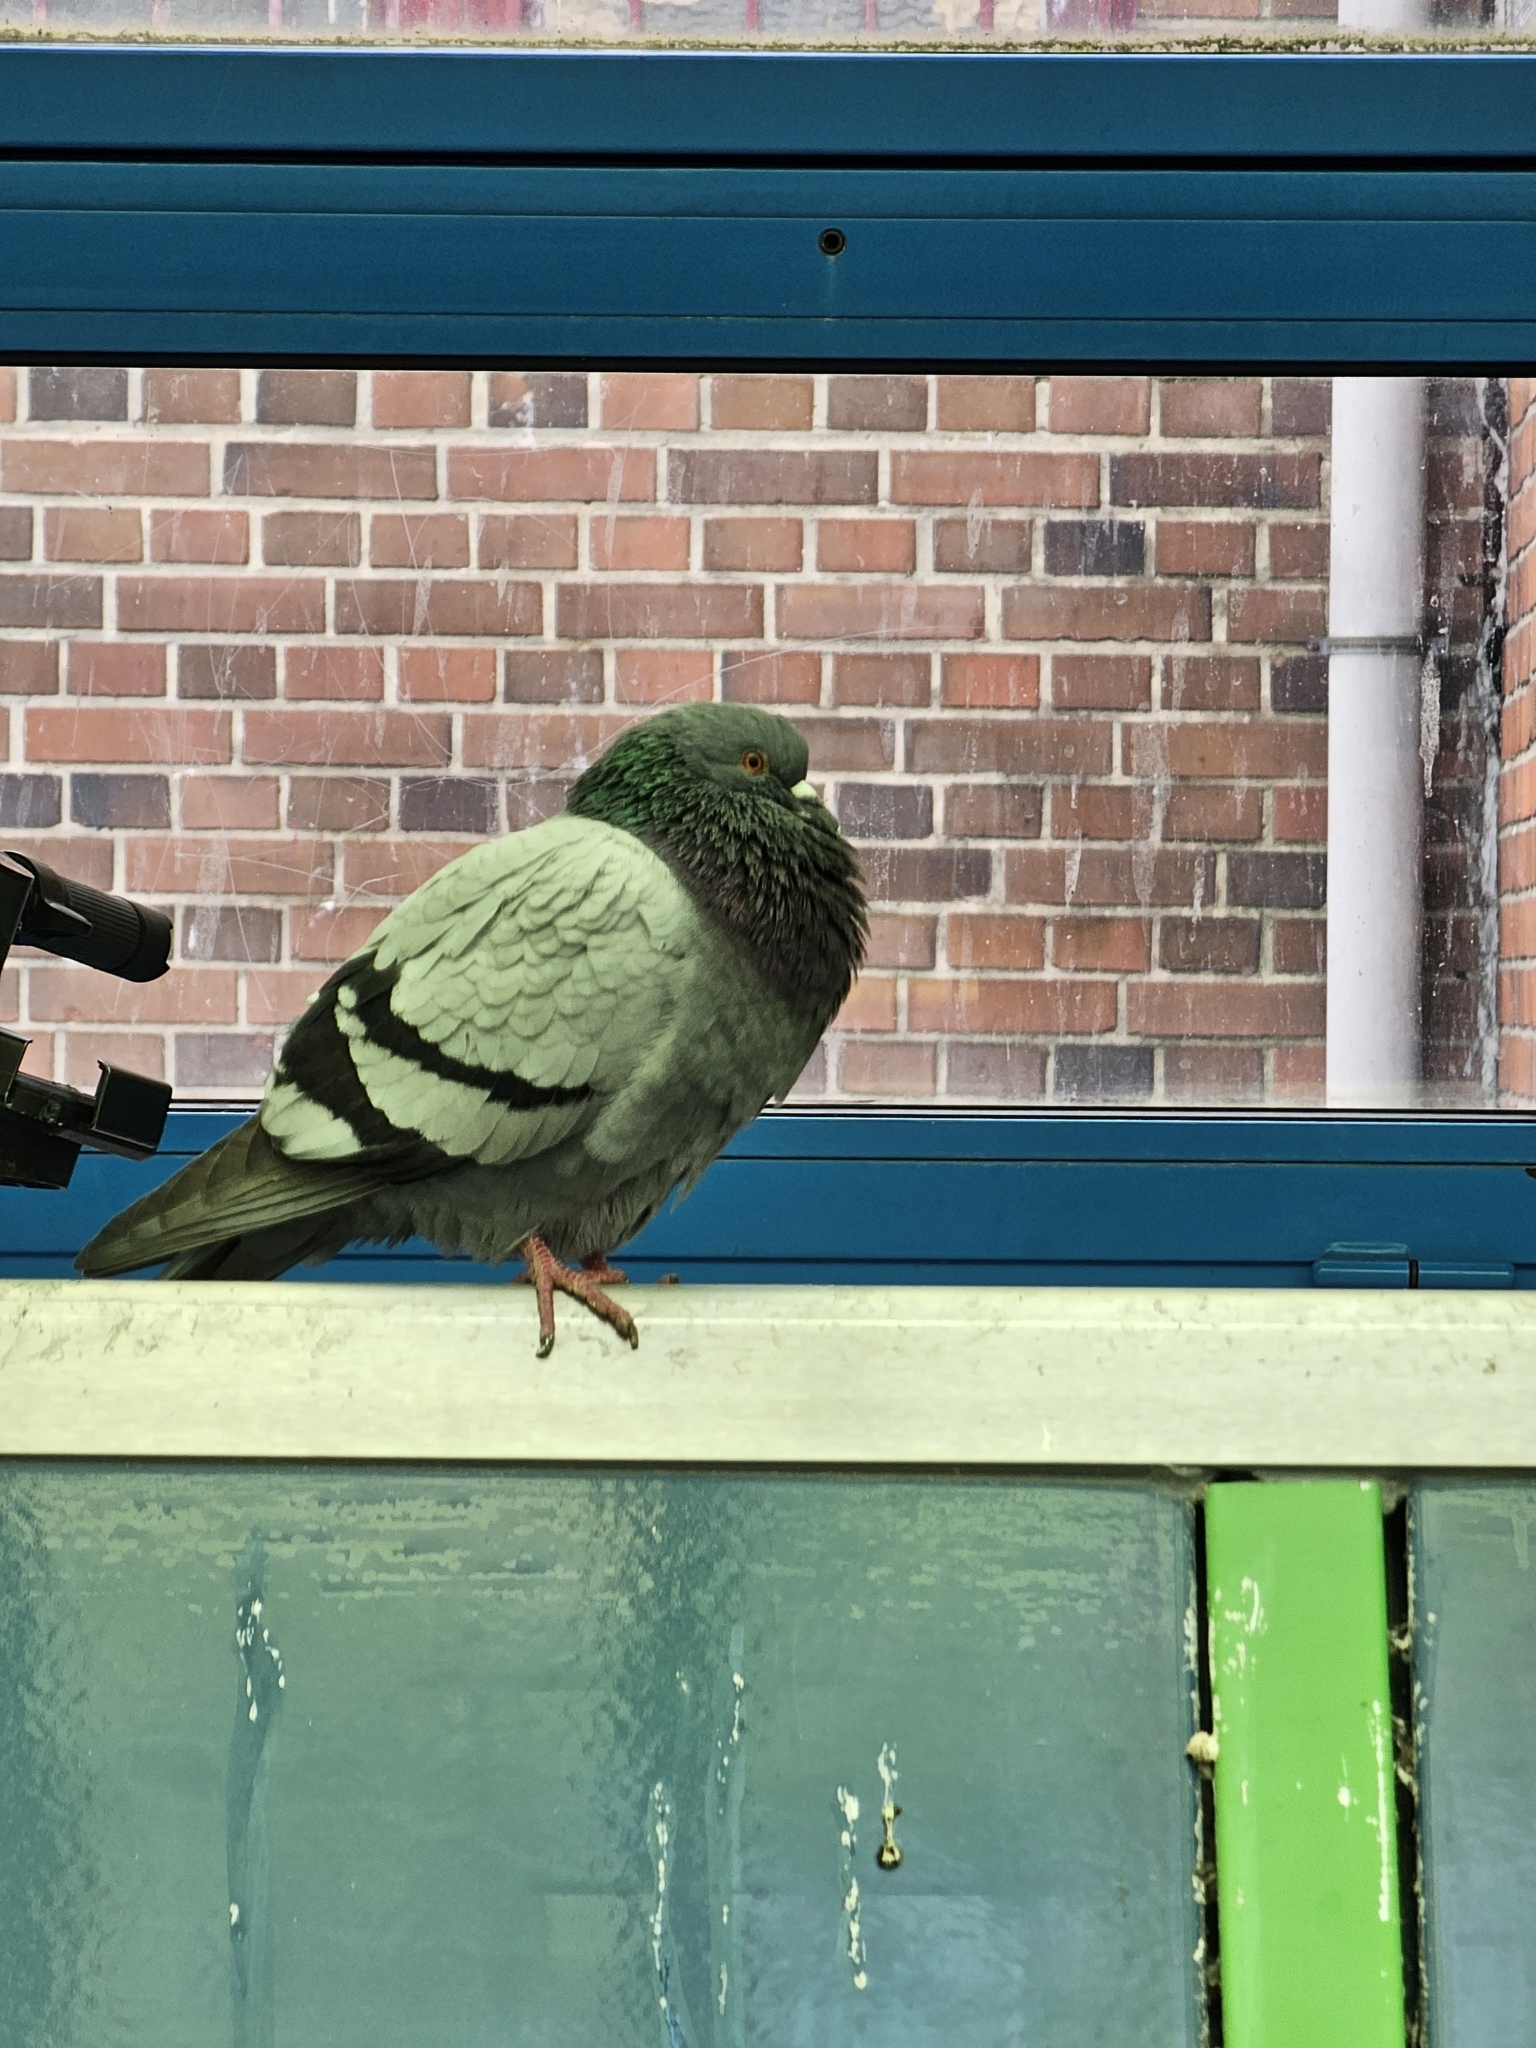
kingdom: Animalia
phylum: Chordata
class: Aves
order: Columbiformes
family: Columbidae
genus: Columba
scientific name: Columba livia
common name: Rock pigeon
